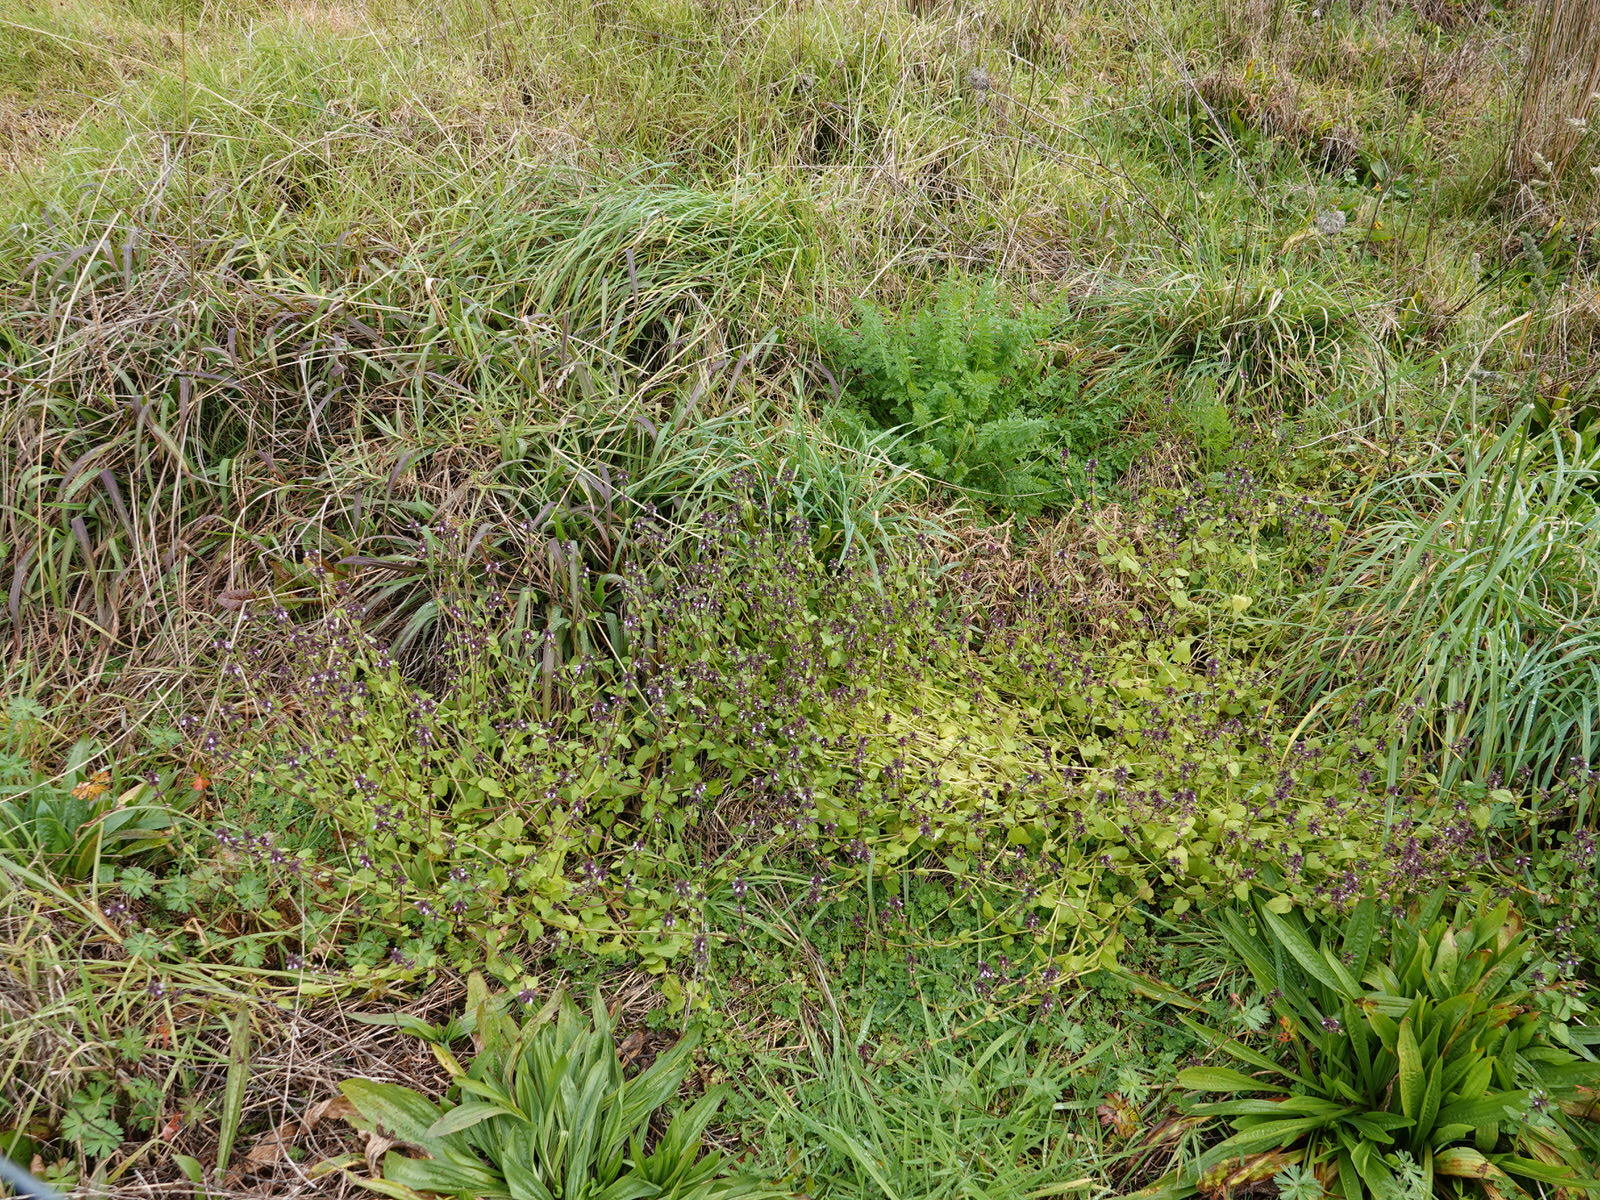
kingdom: Plantae
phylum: Tracheophyta
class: Magnoliopsida
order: Lamiales
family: Lamiaceae
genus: Stachys
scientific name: Stachys arvensis
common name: Field woundwort
